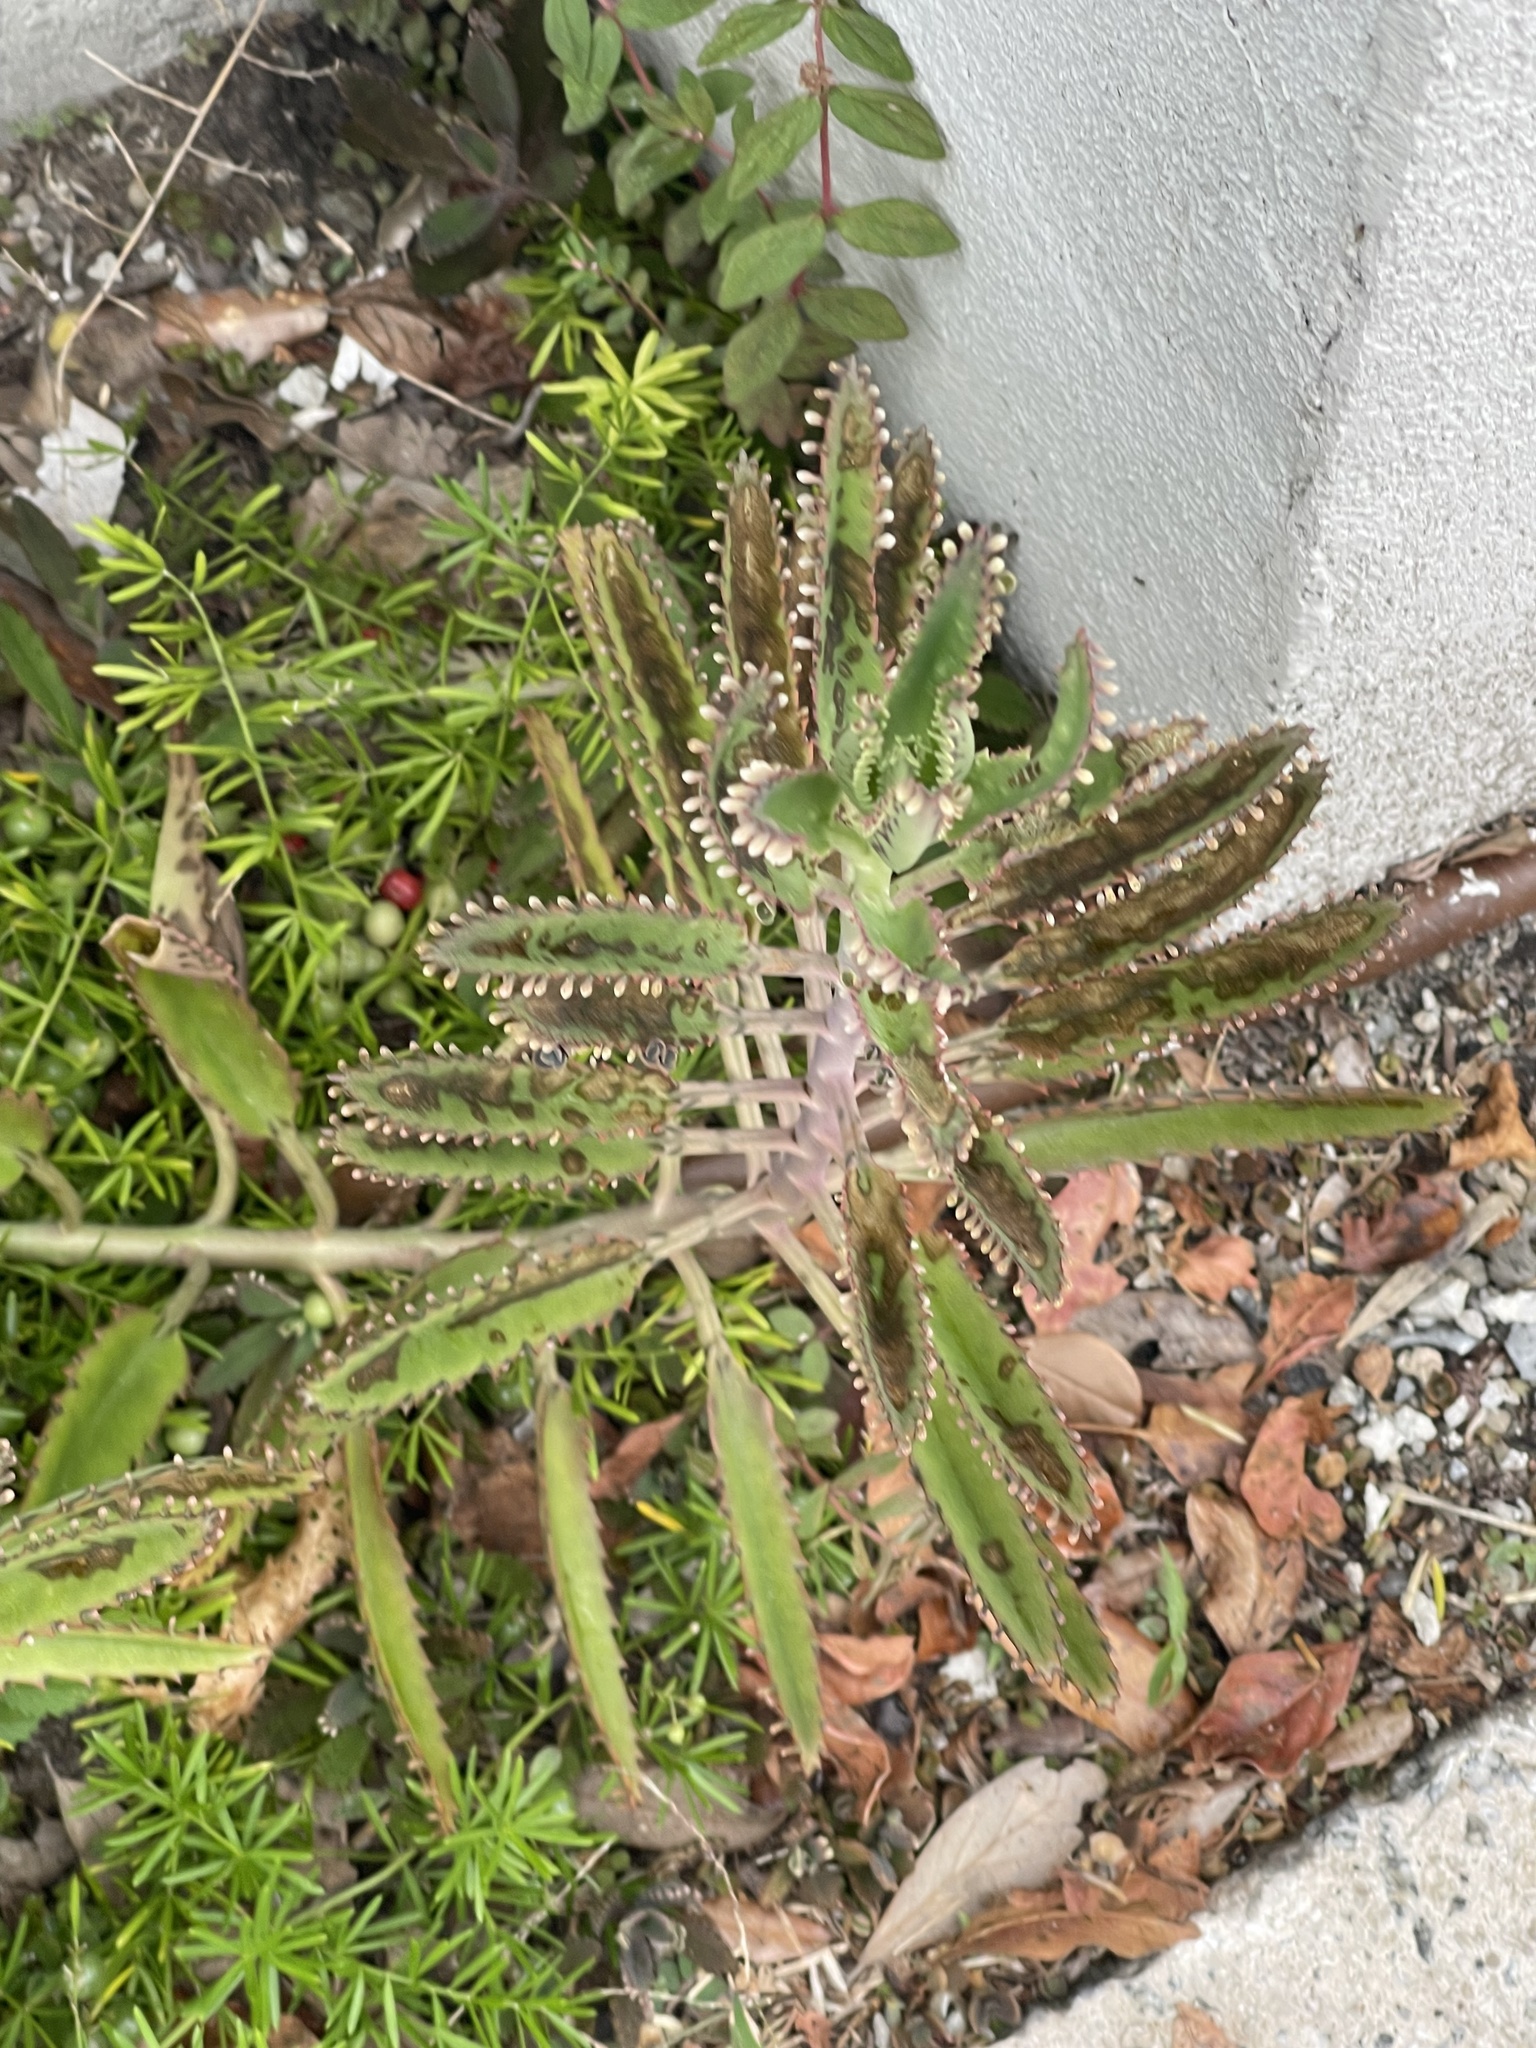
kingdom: Plantae
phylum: Tracheophyta
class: Magnoliopsida
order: Saxifragales
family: Crassulaceae
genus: Kalanchoe
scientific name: Kalanchoe houghtonii
